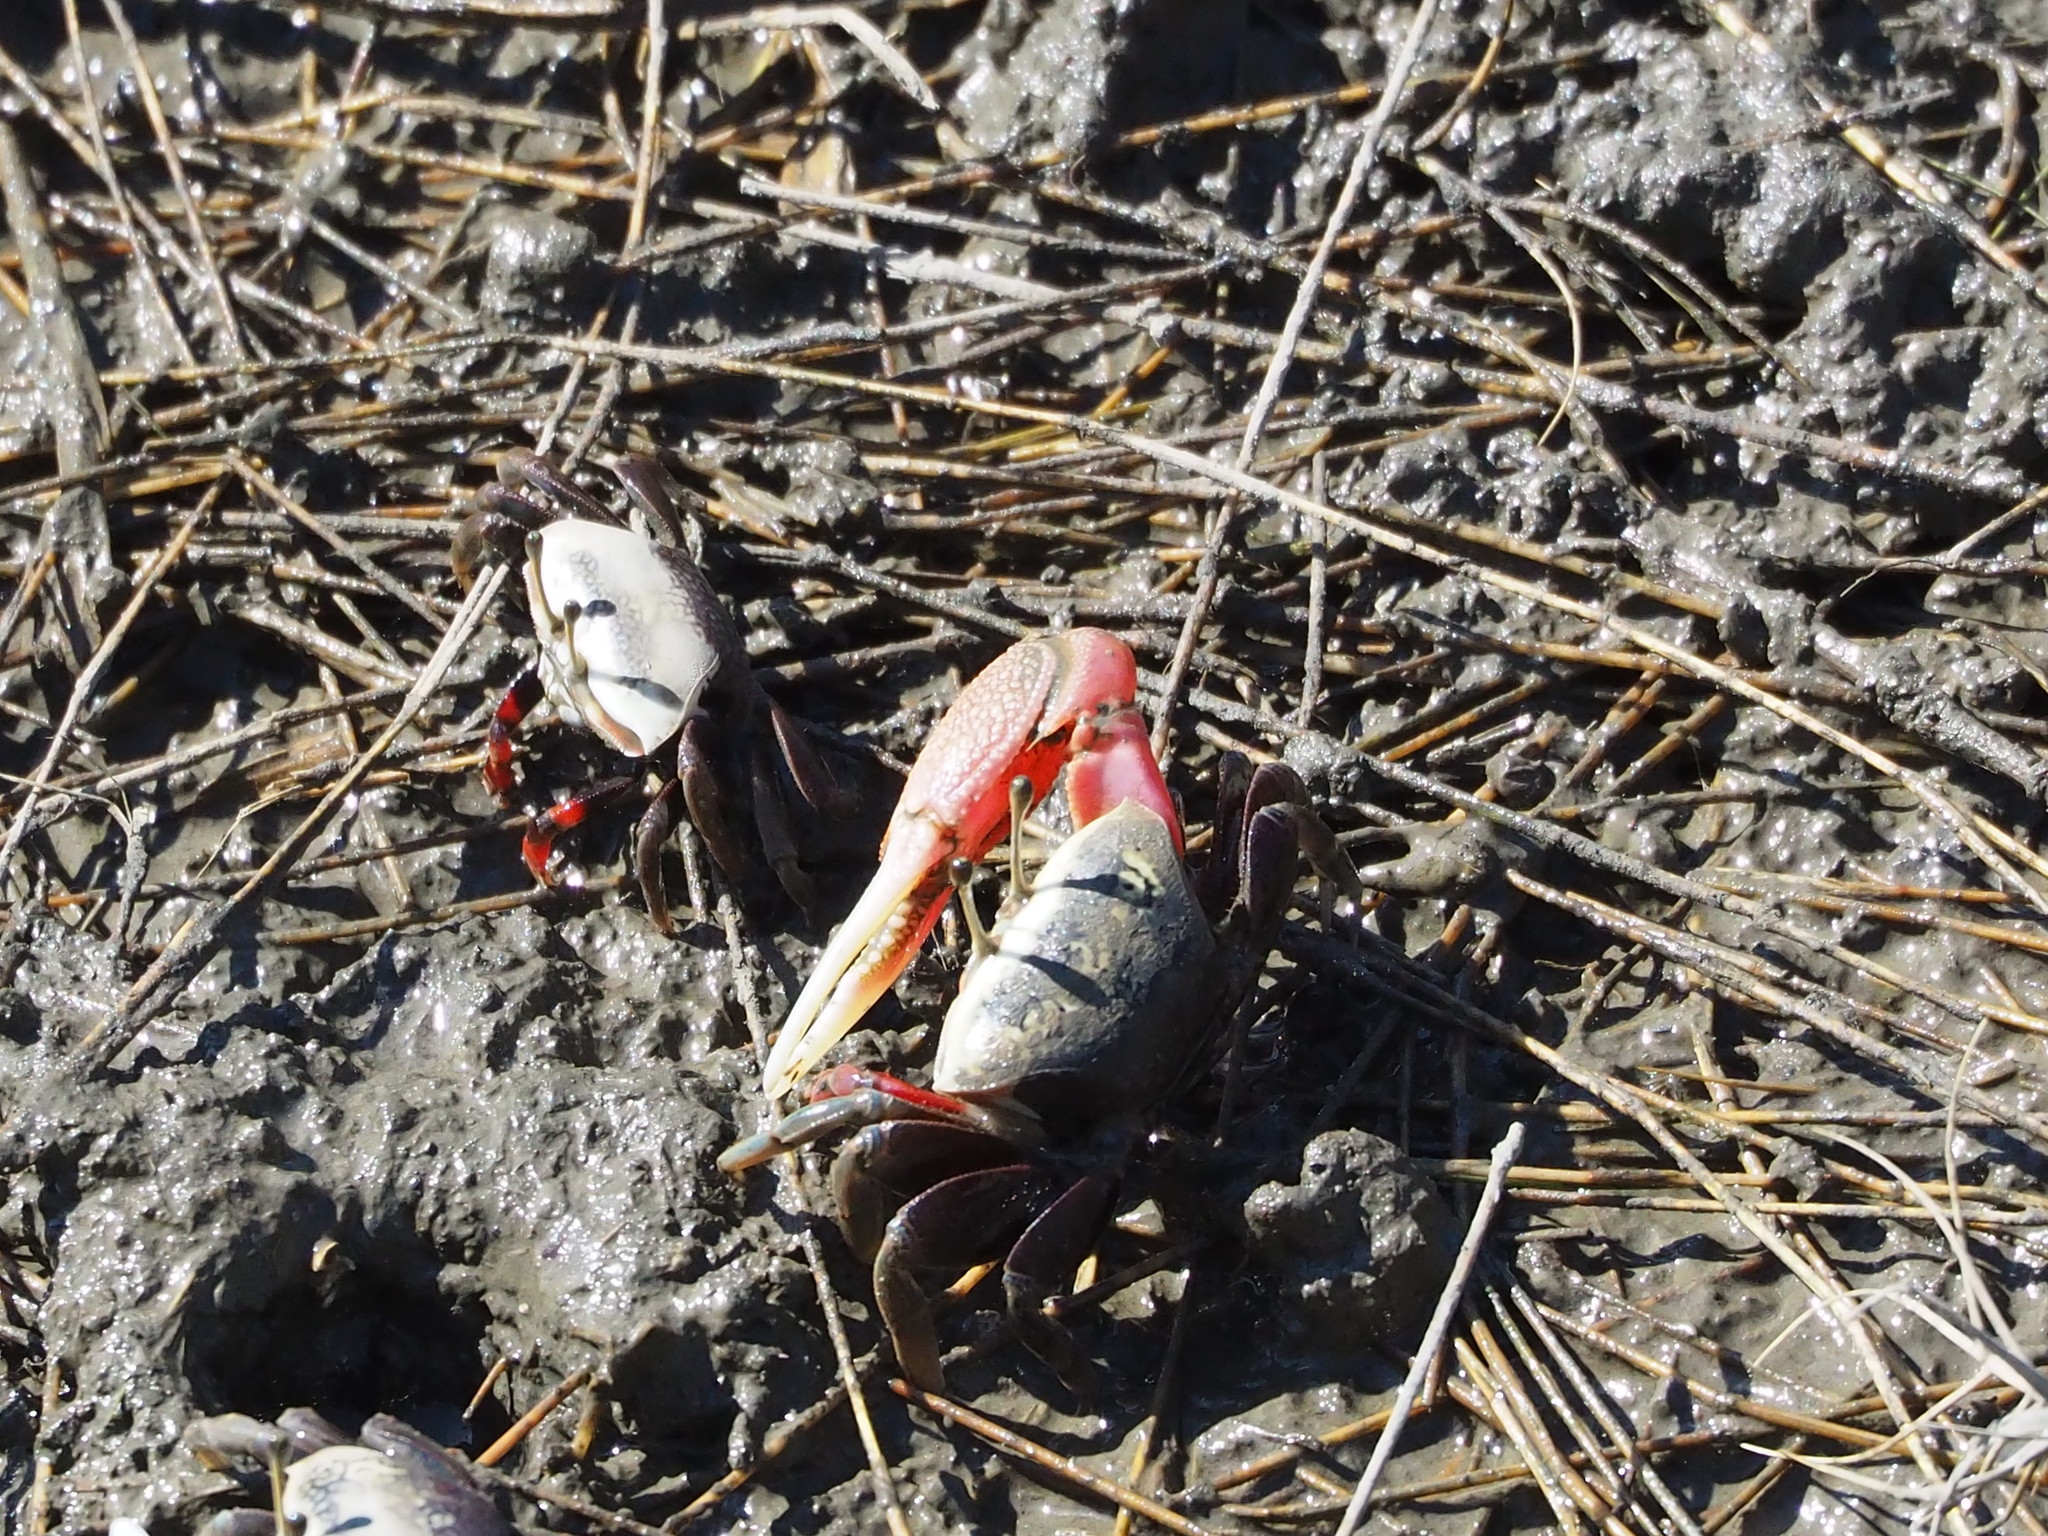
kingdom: Animalia
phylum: Arthropoda
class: Malacostraca
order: Decapoda
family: Ocypodidae
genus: Tubuca
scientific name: Tubuca arcuata
